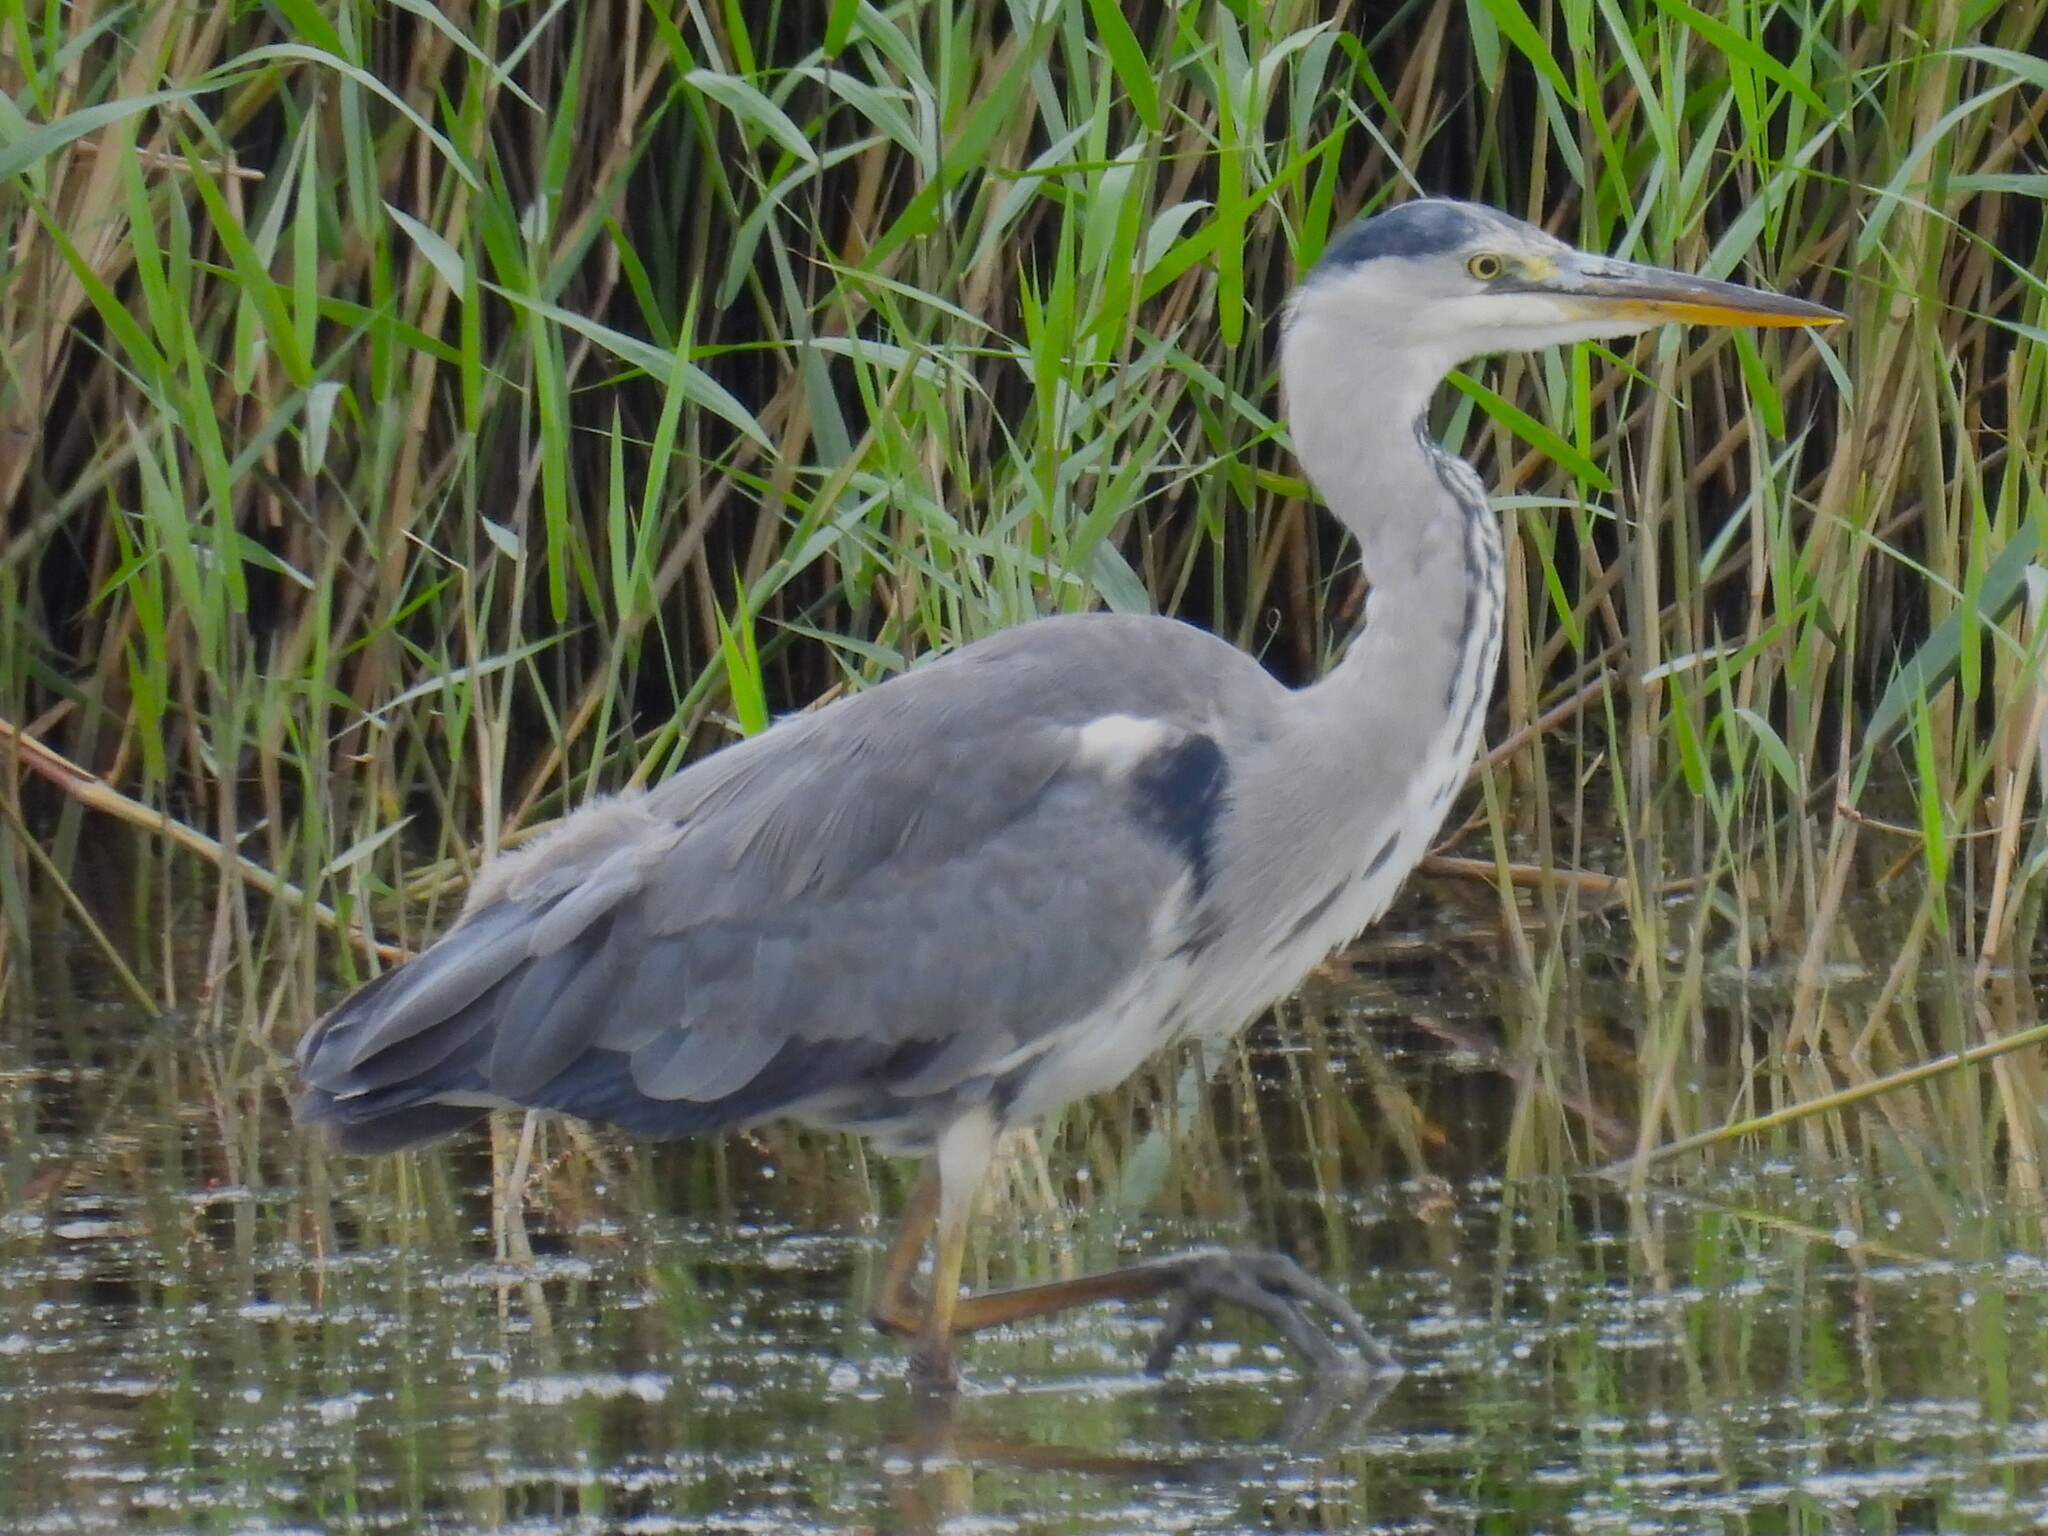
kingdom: Animalia
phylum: Chordata
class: Aves
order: Pelecaniformes
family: Ardeidae
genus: Ardea
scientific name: Ardea cinerea
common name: Grey heron
